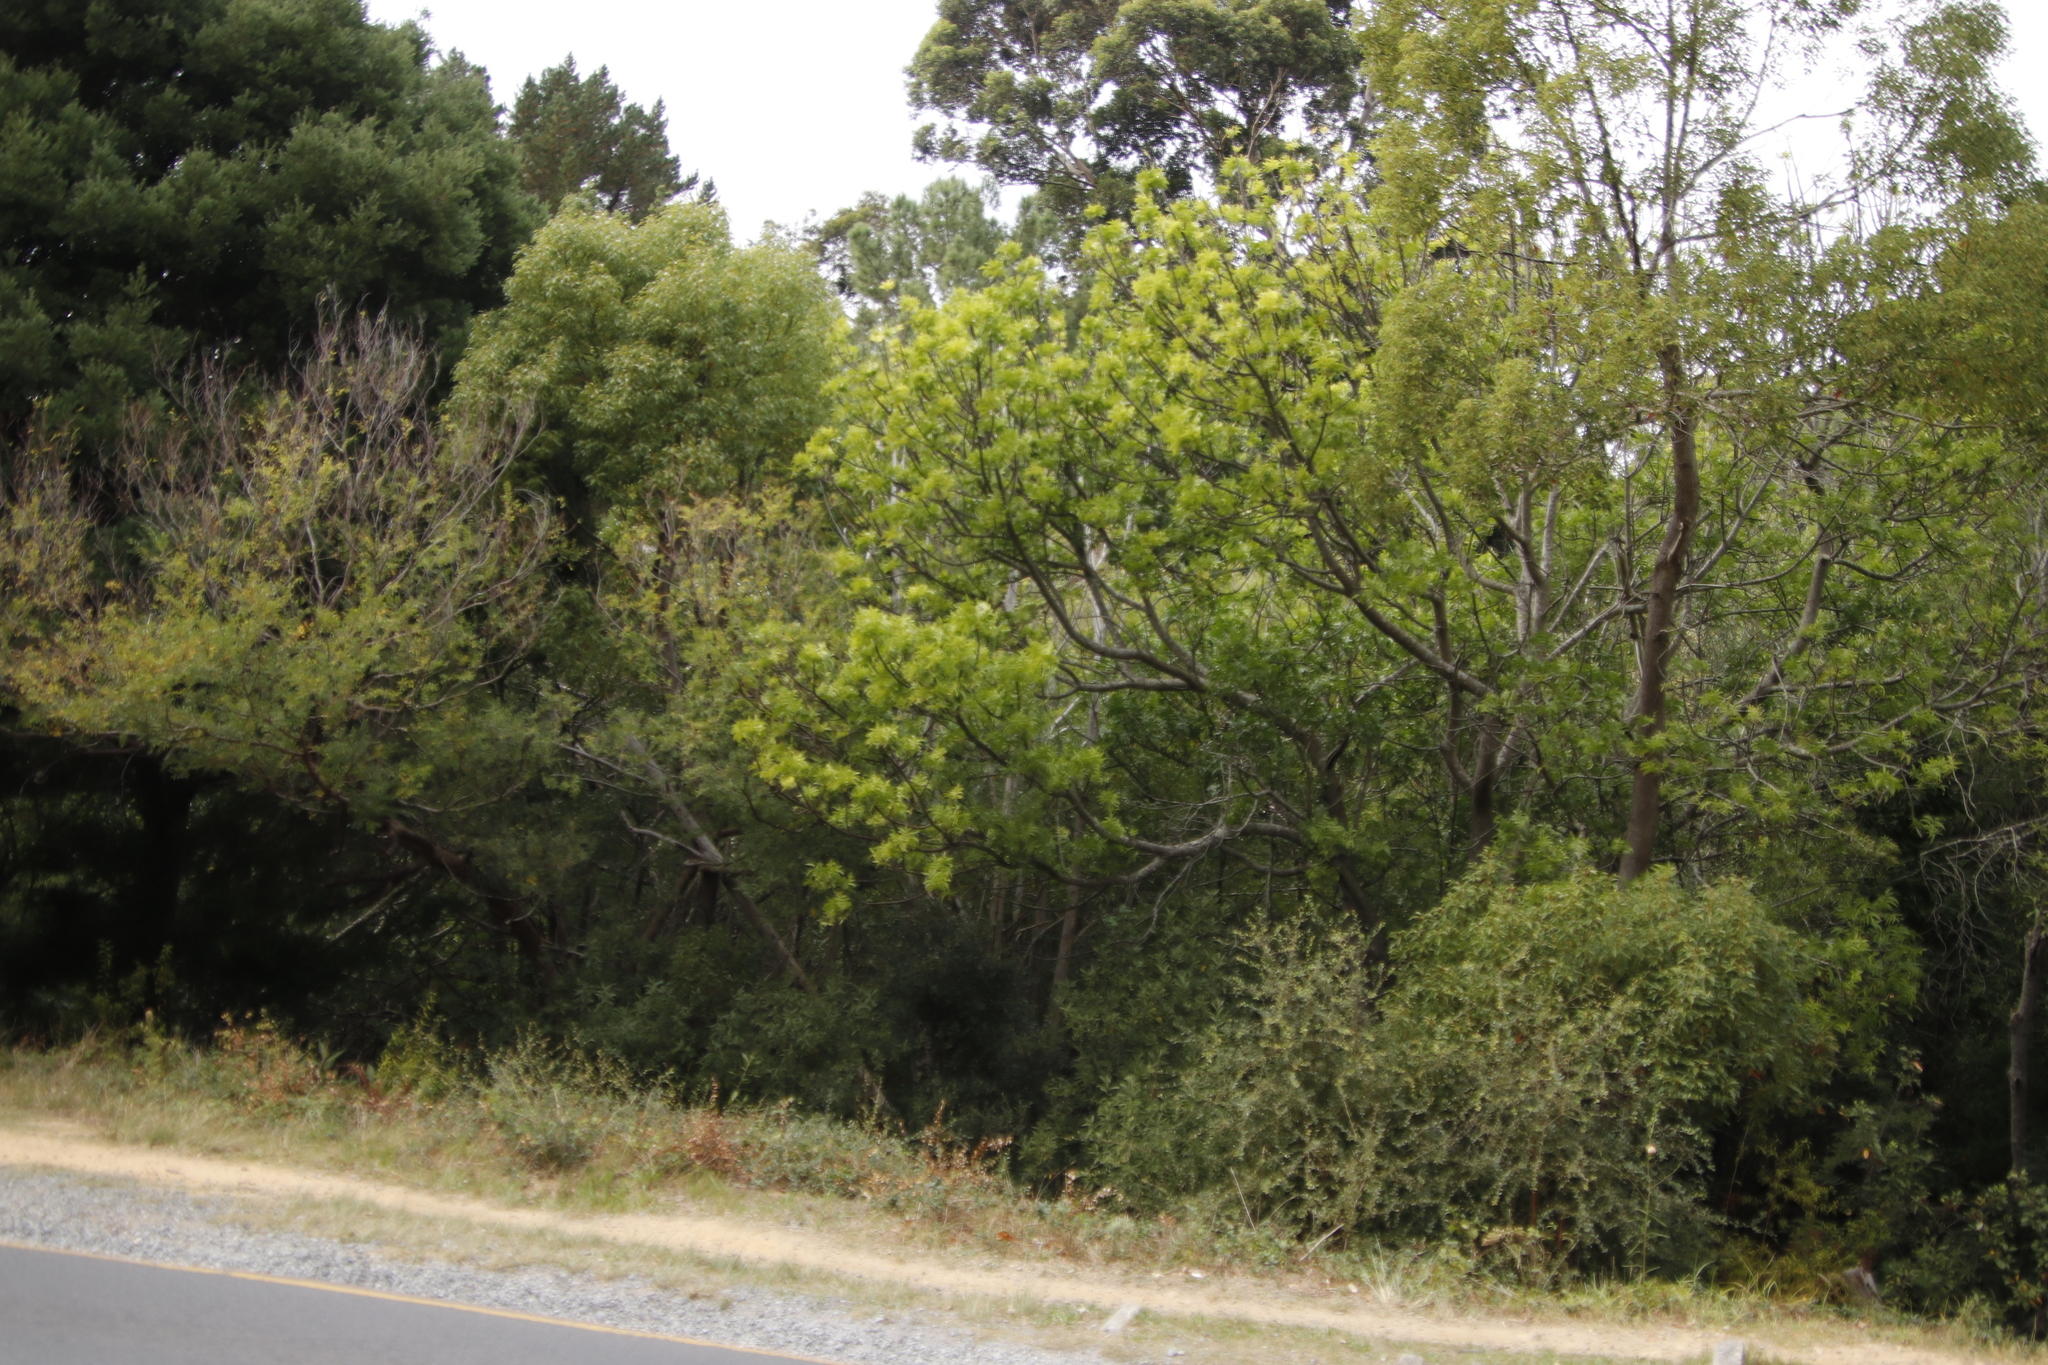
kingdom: Plantae
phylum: Tracheophyta
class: Magnoliopsida
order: Sapindales
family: Anacardiaceae
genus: Harpephyllum
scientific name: Harpephyllum caffrum
